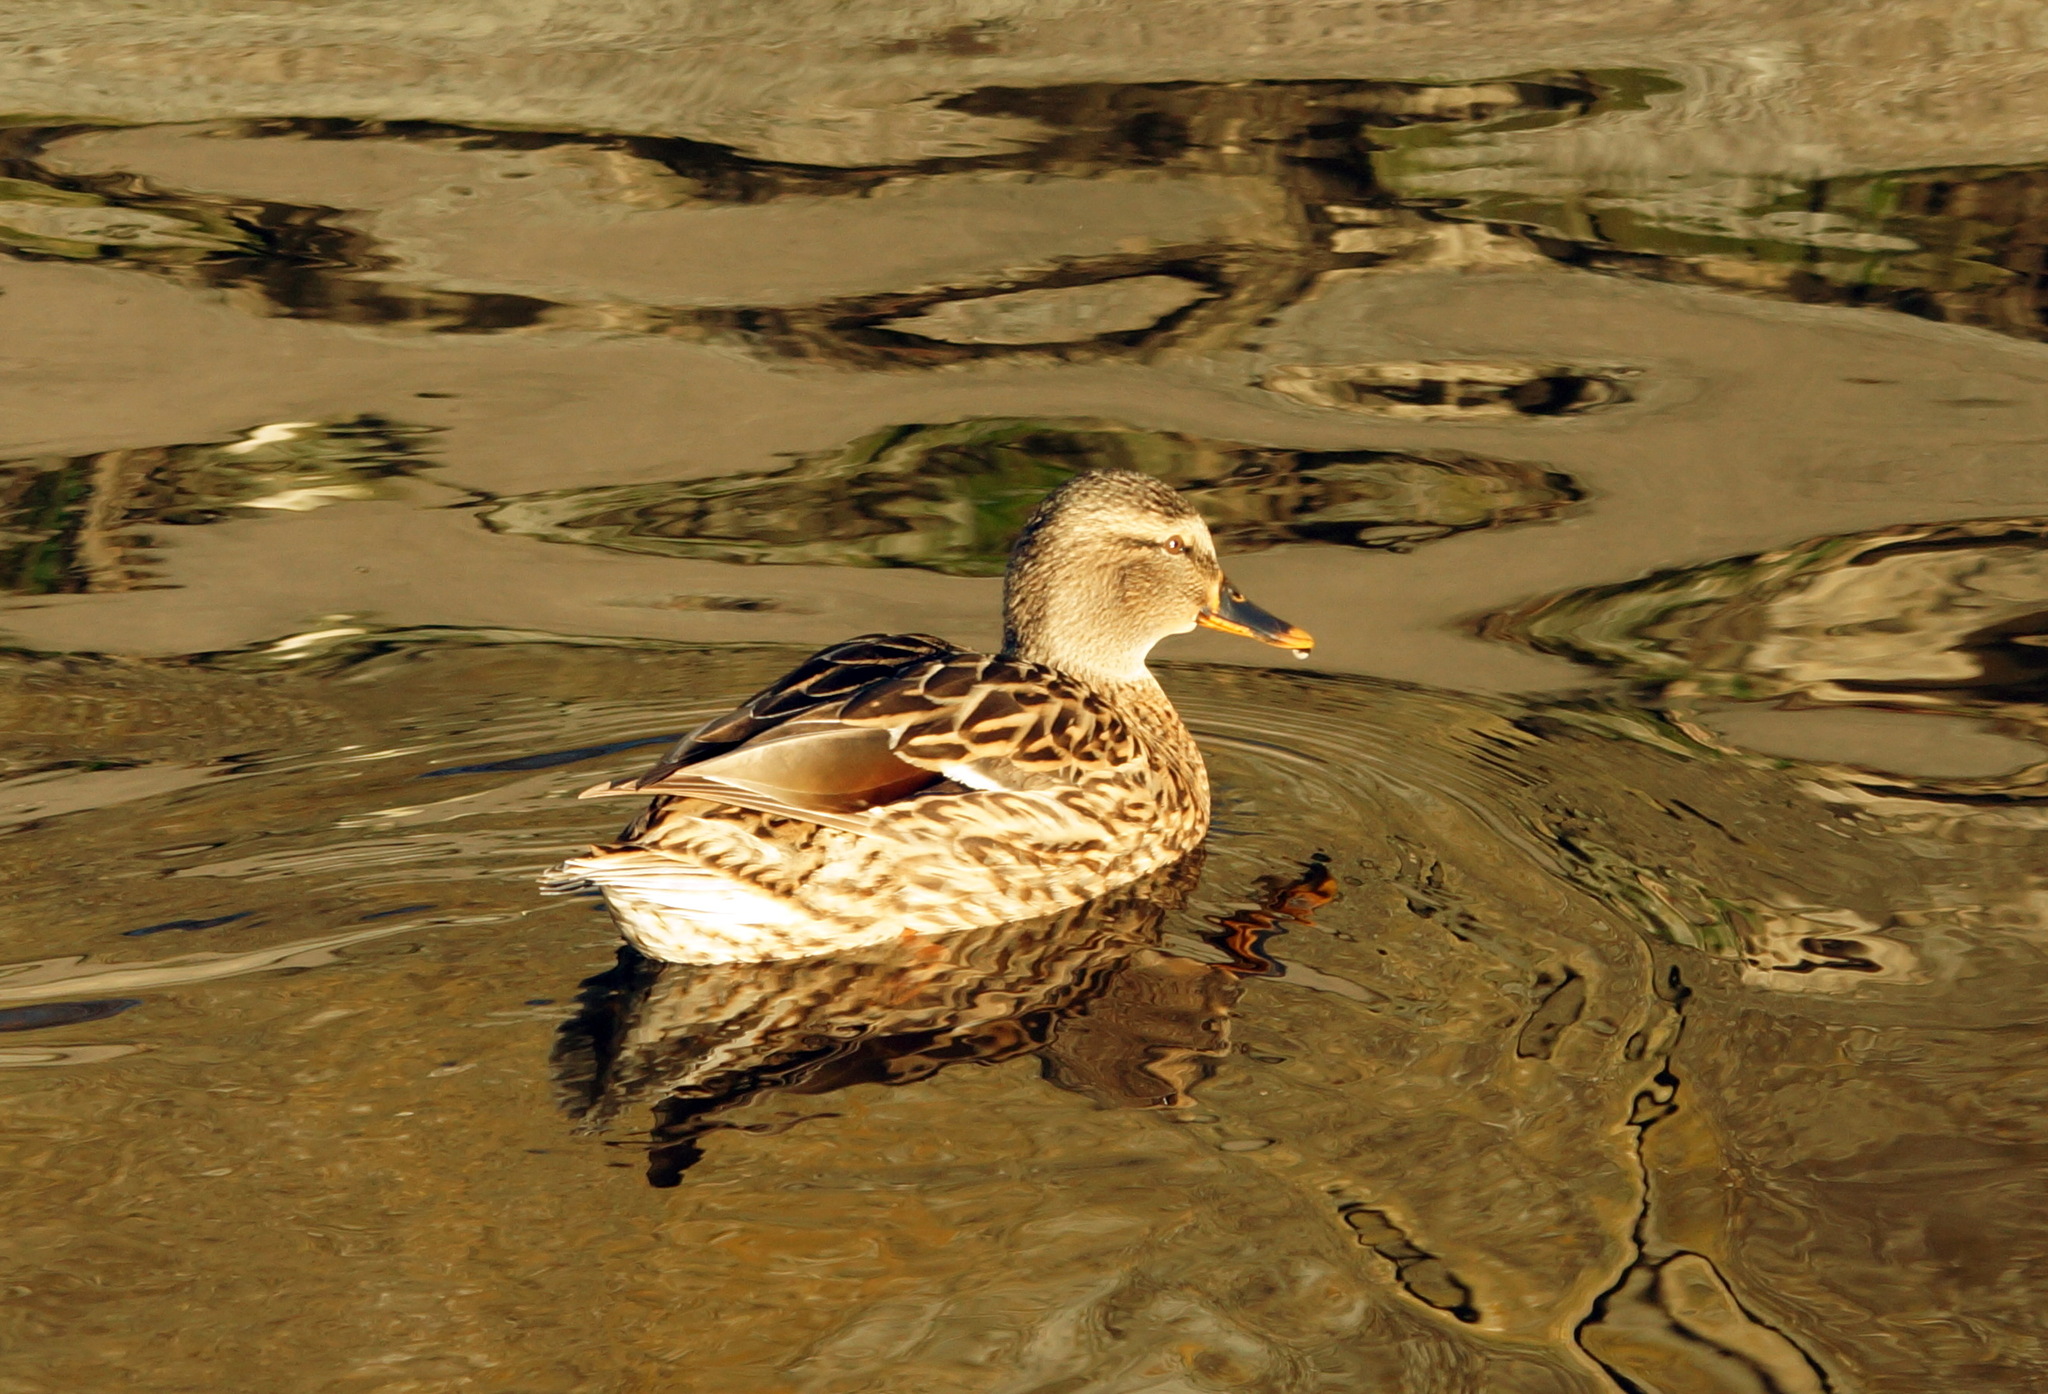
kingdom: Animalia
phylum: Chordata
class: Aves
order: Anseriformes
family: Anatidae
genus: Anas
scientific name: Anas platyrhynchos
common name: Mallard
